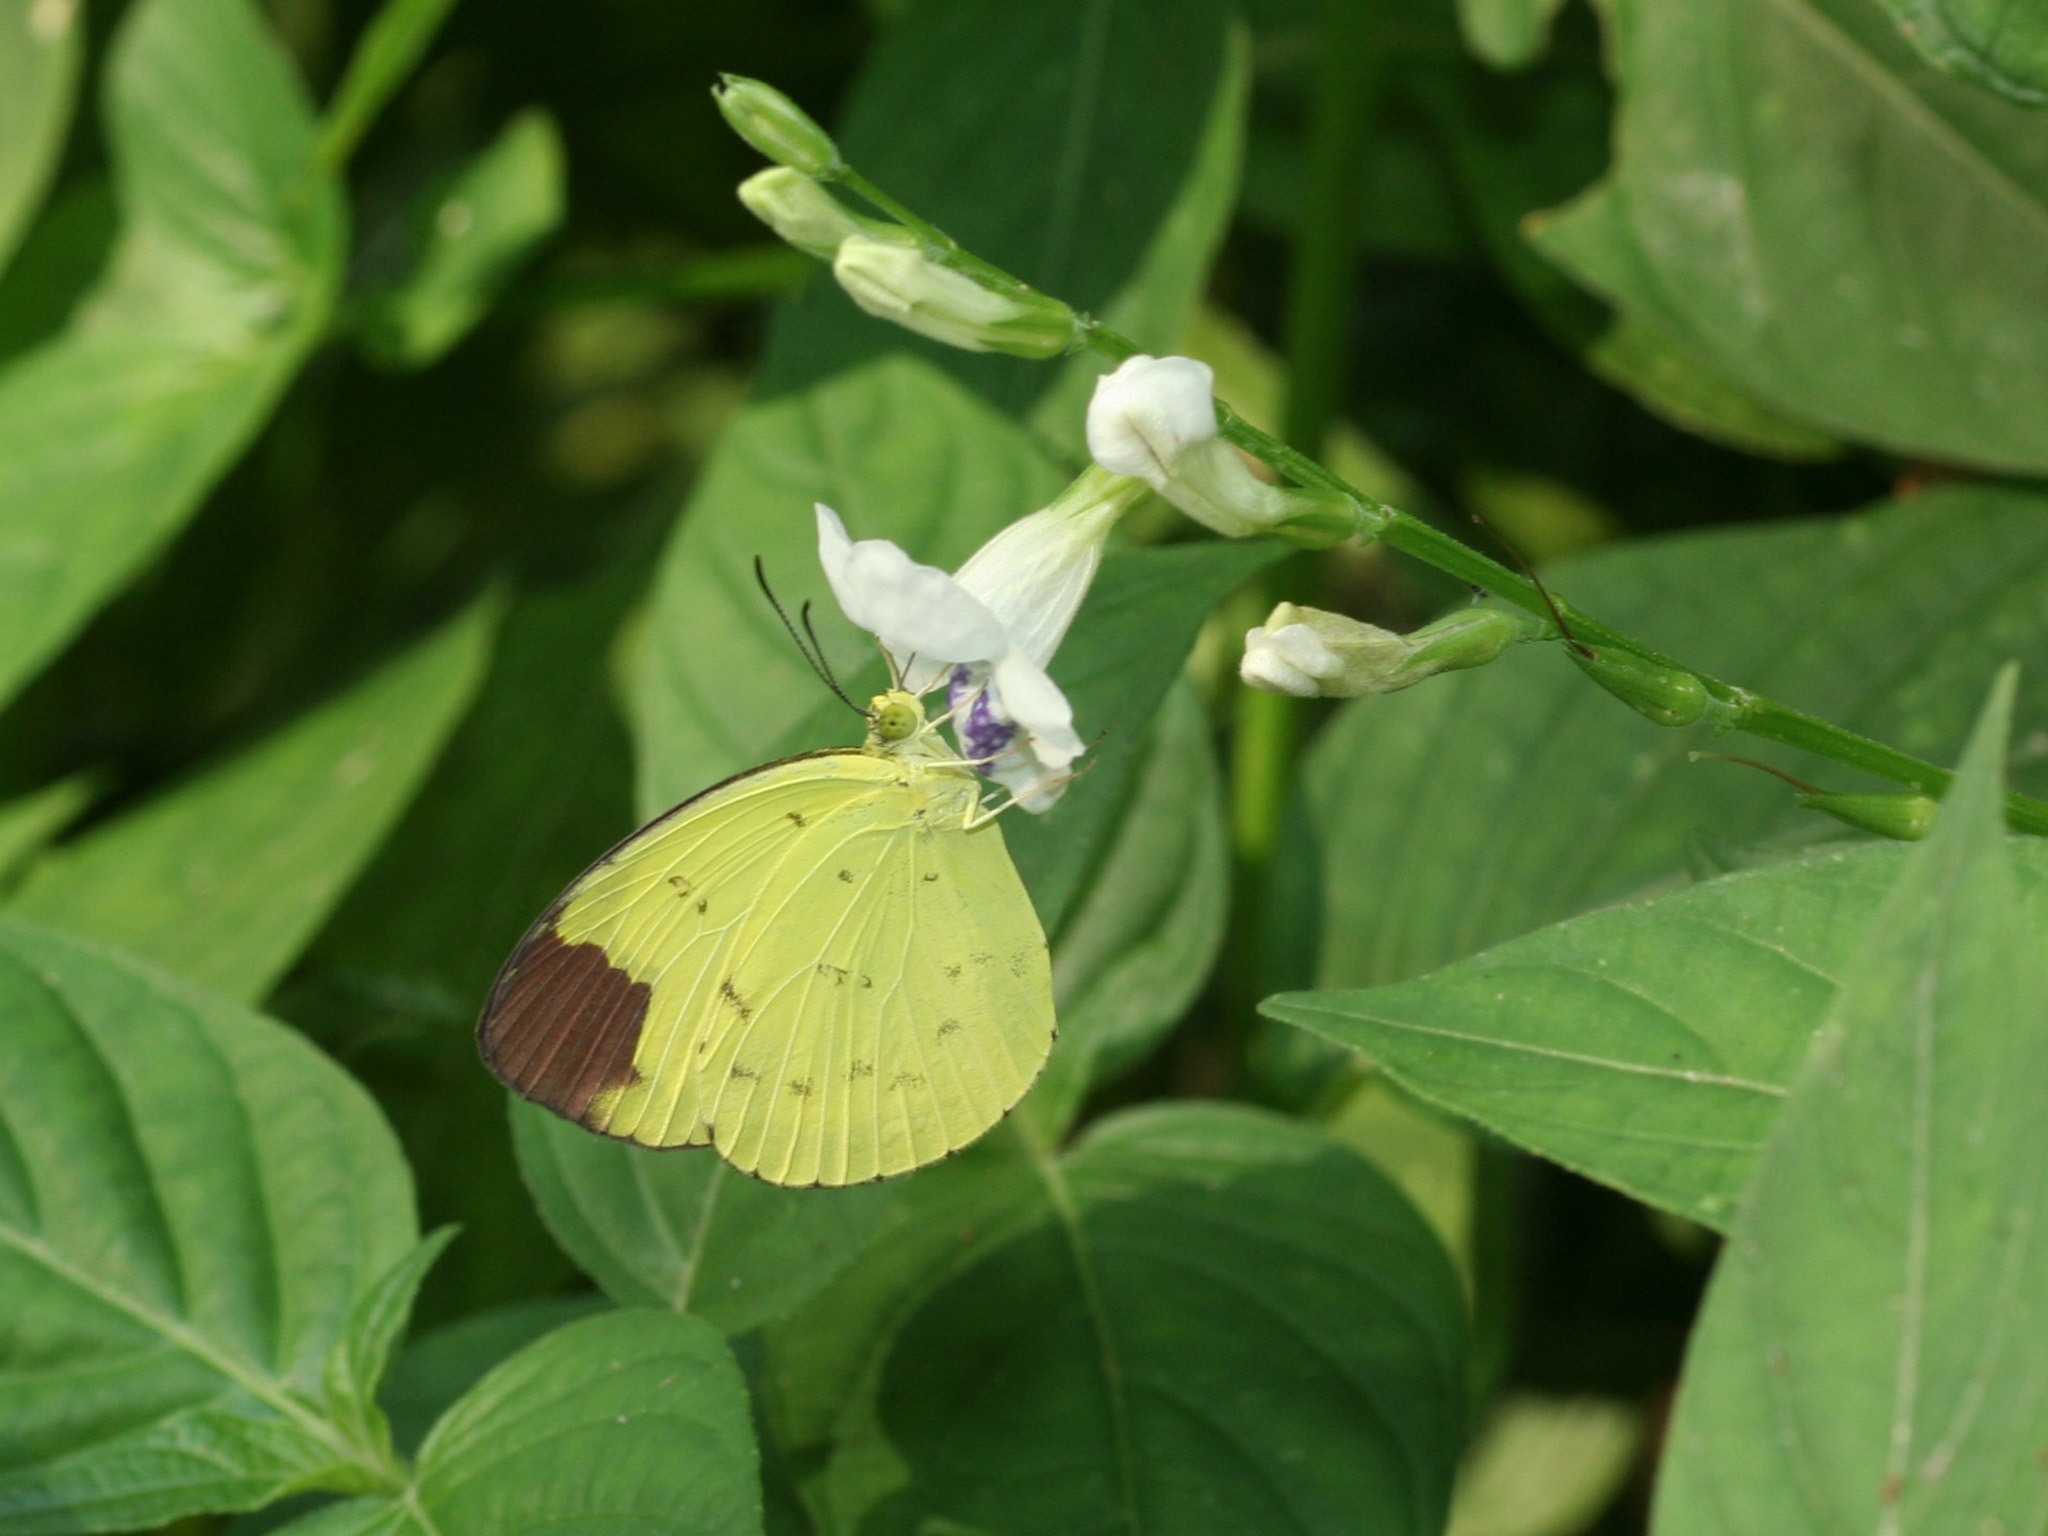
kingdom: Animalia
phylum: Arthropoda
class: Insecta
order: Lepidoptera
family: Pieridae
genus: Eurema
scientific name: Eurema sari
